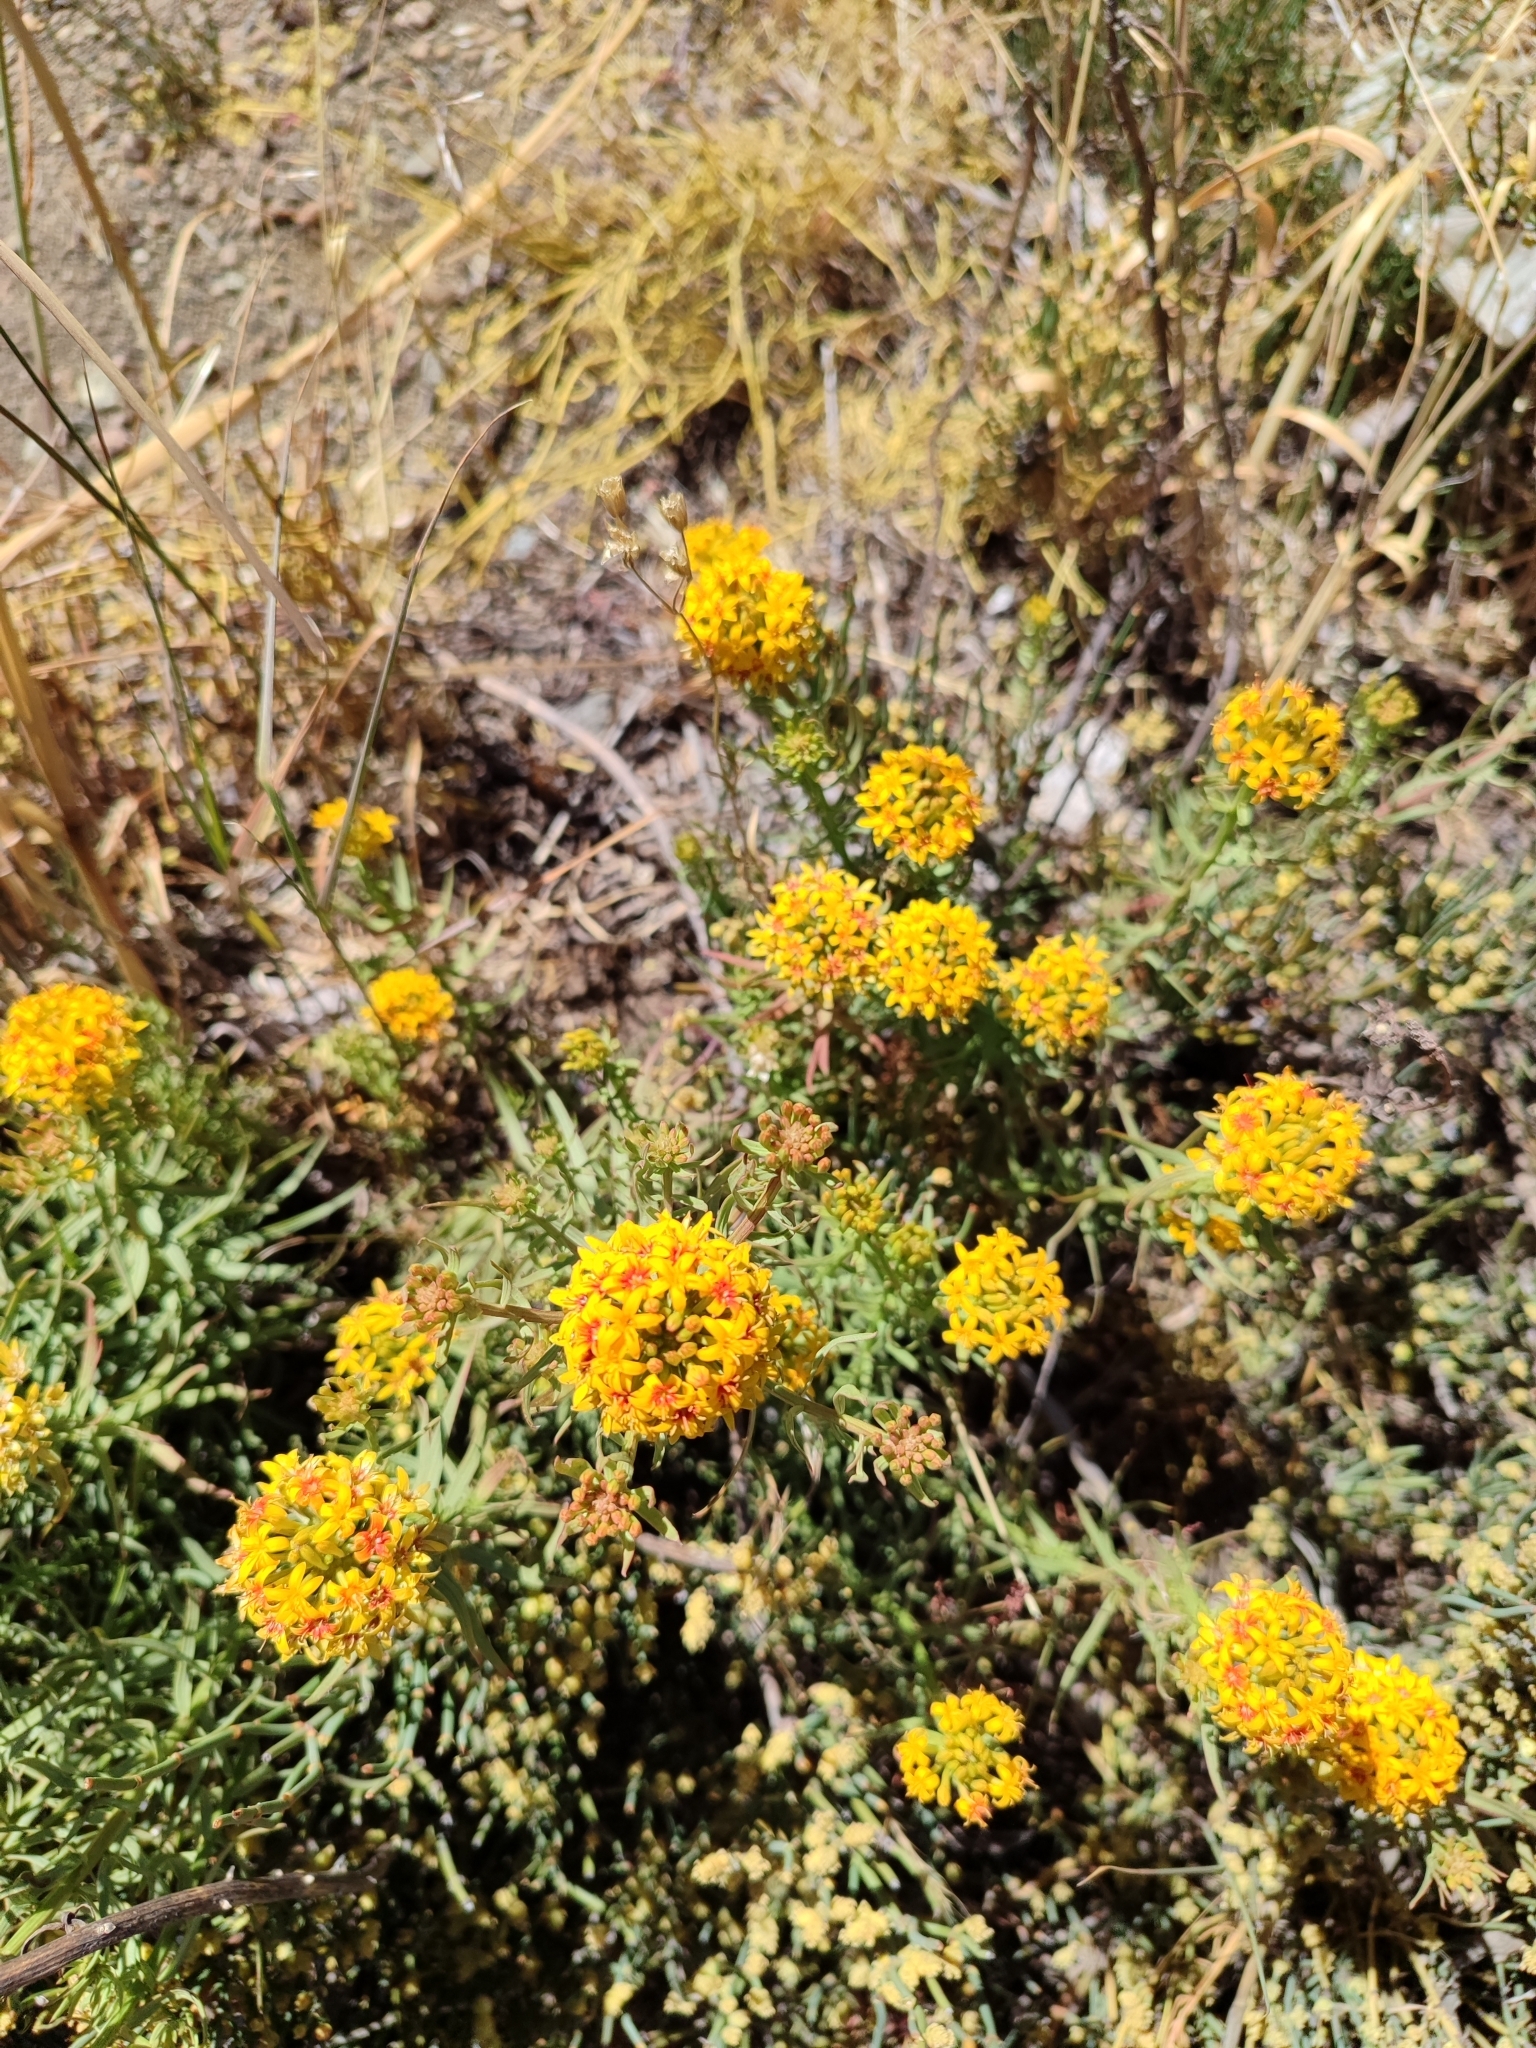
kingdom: Plantae
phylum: Tracheophyta
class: Magnoliopsida
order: Santalales
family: Schoepfiaceae
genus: Quinchamalium
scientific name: Quinchamalium chilense
